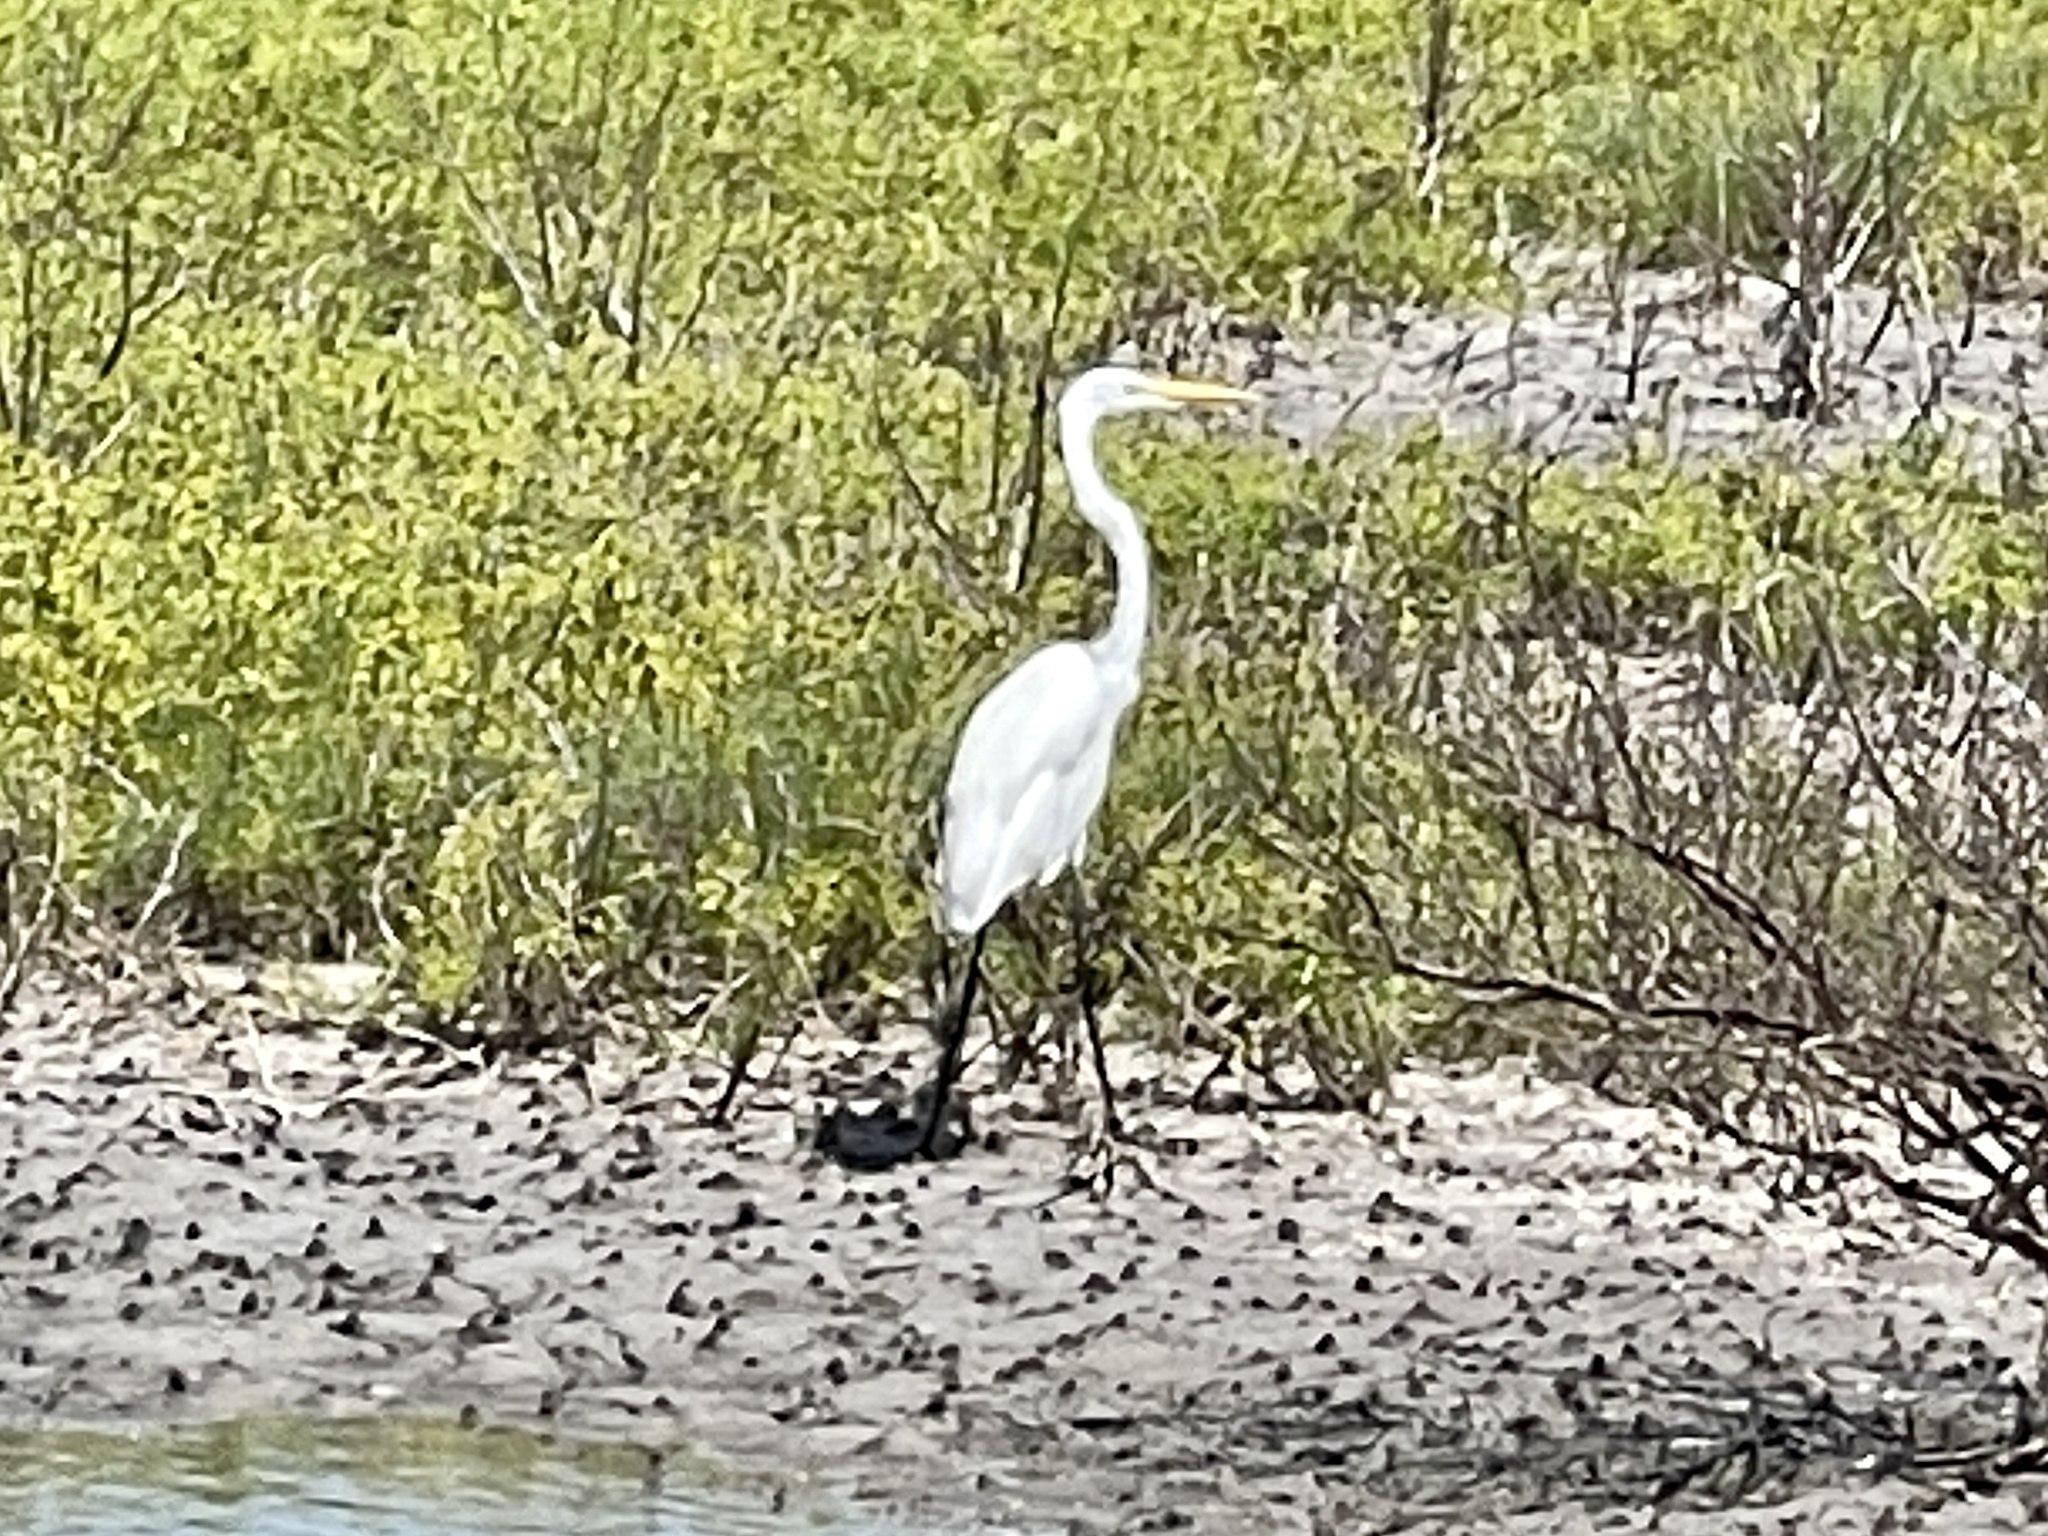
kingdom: Animalia
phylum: Chordata
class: Aves
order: Pelecaniformes
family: Ardeidae
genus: Ardea
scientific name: Ardea alba
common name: Great egret
